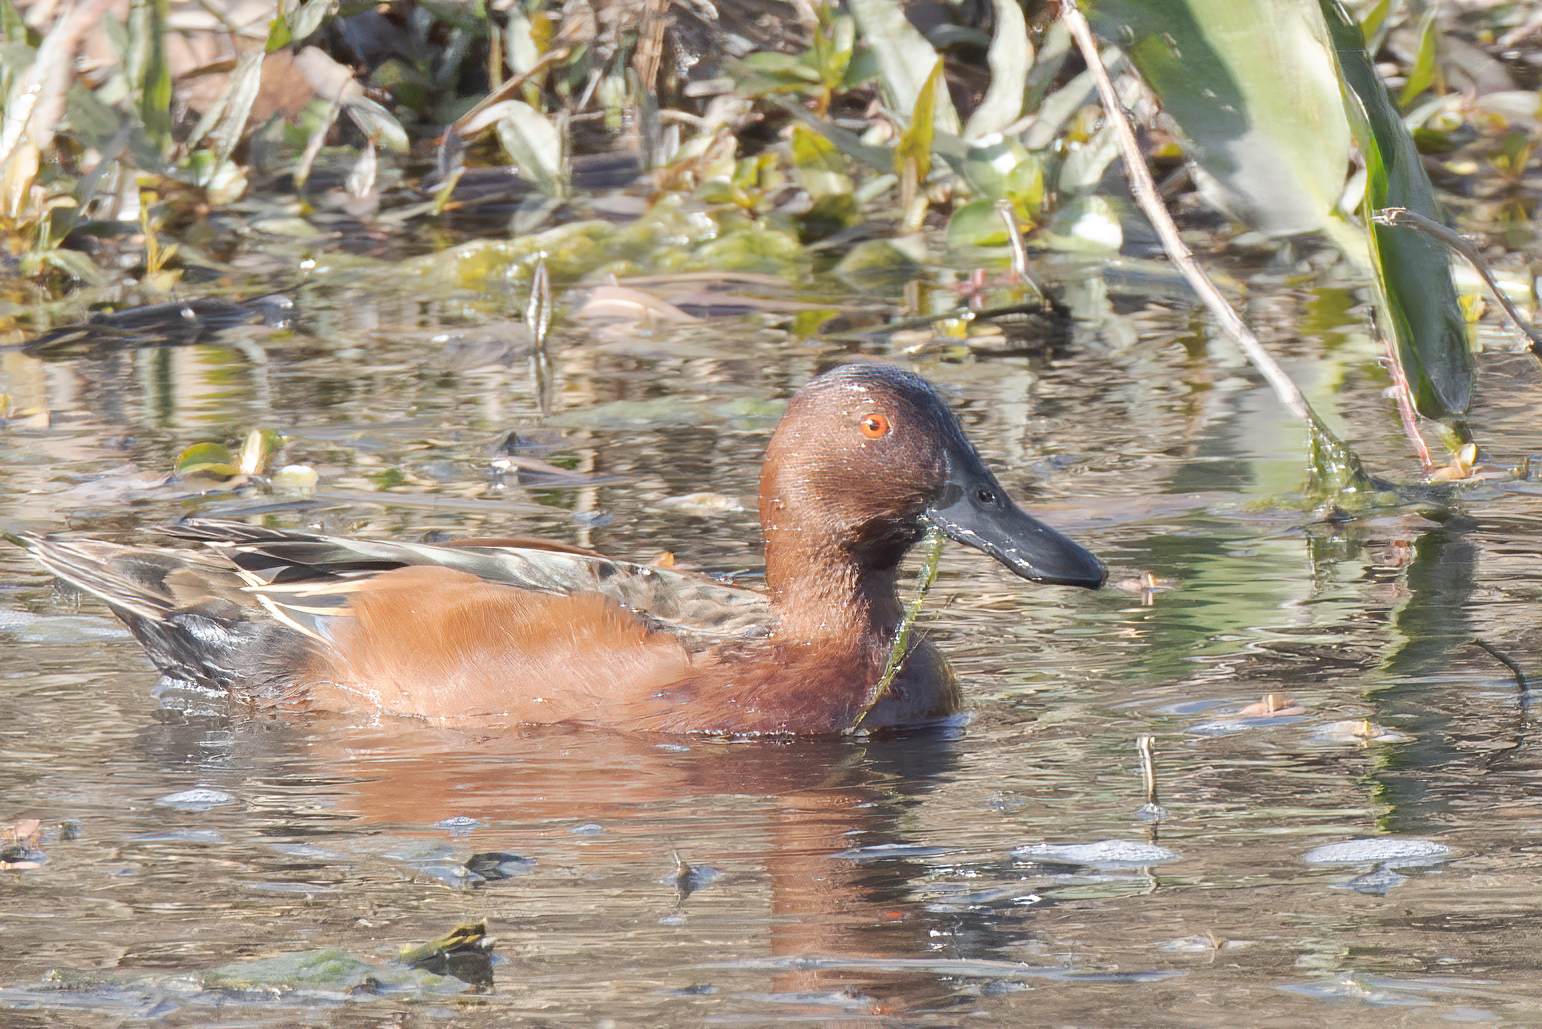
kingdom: Animalia
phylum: Chordata
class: Aves
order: Anseriformes
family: Anatidae
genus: Spatula
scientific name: Spatula cyanoptera
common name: Cinnamon teal
